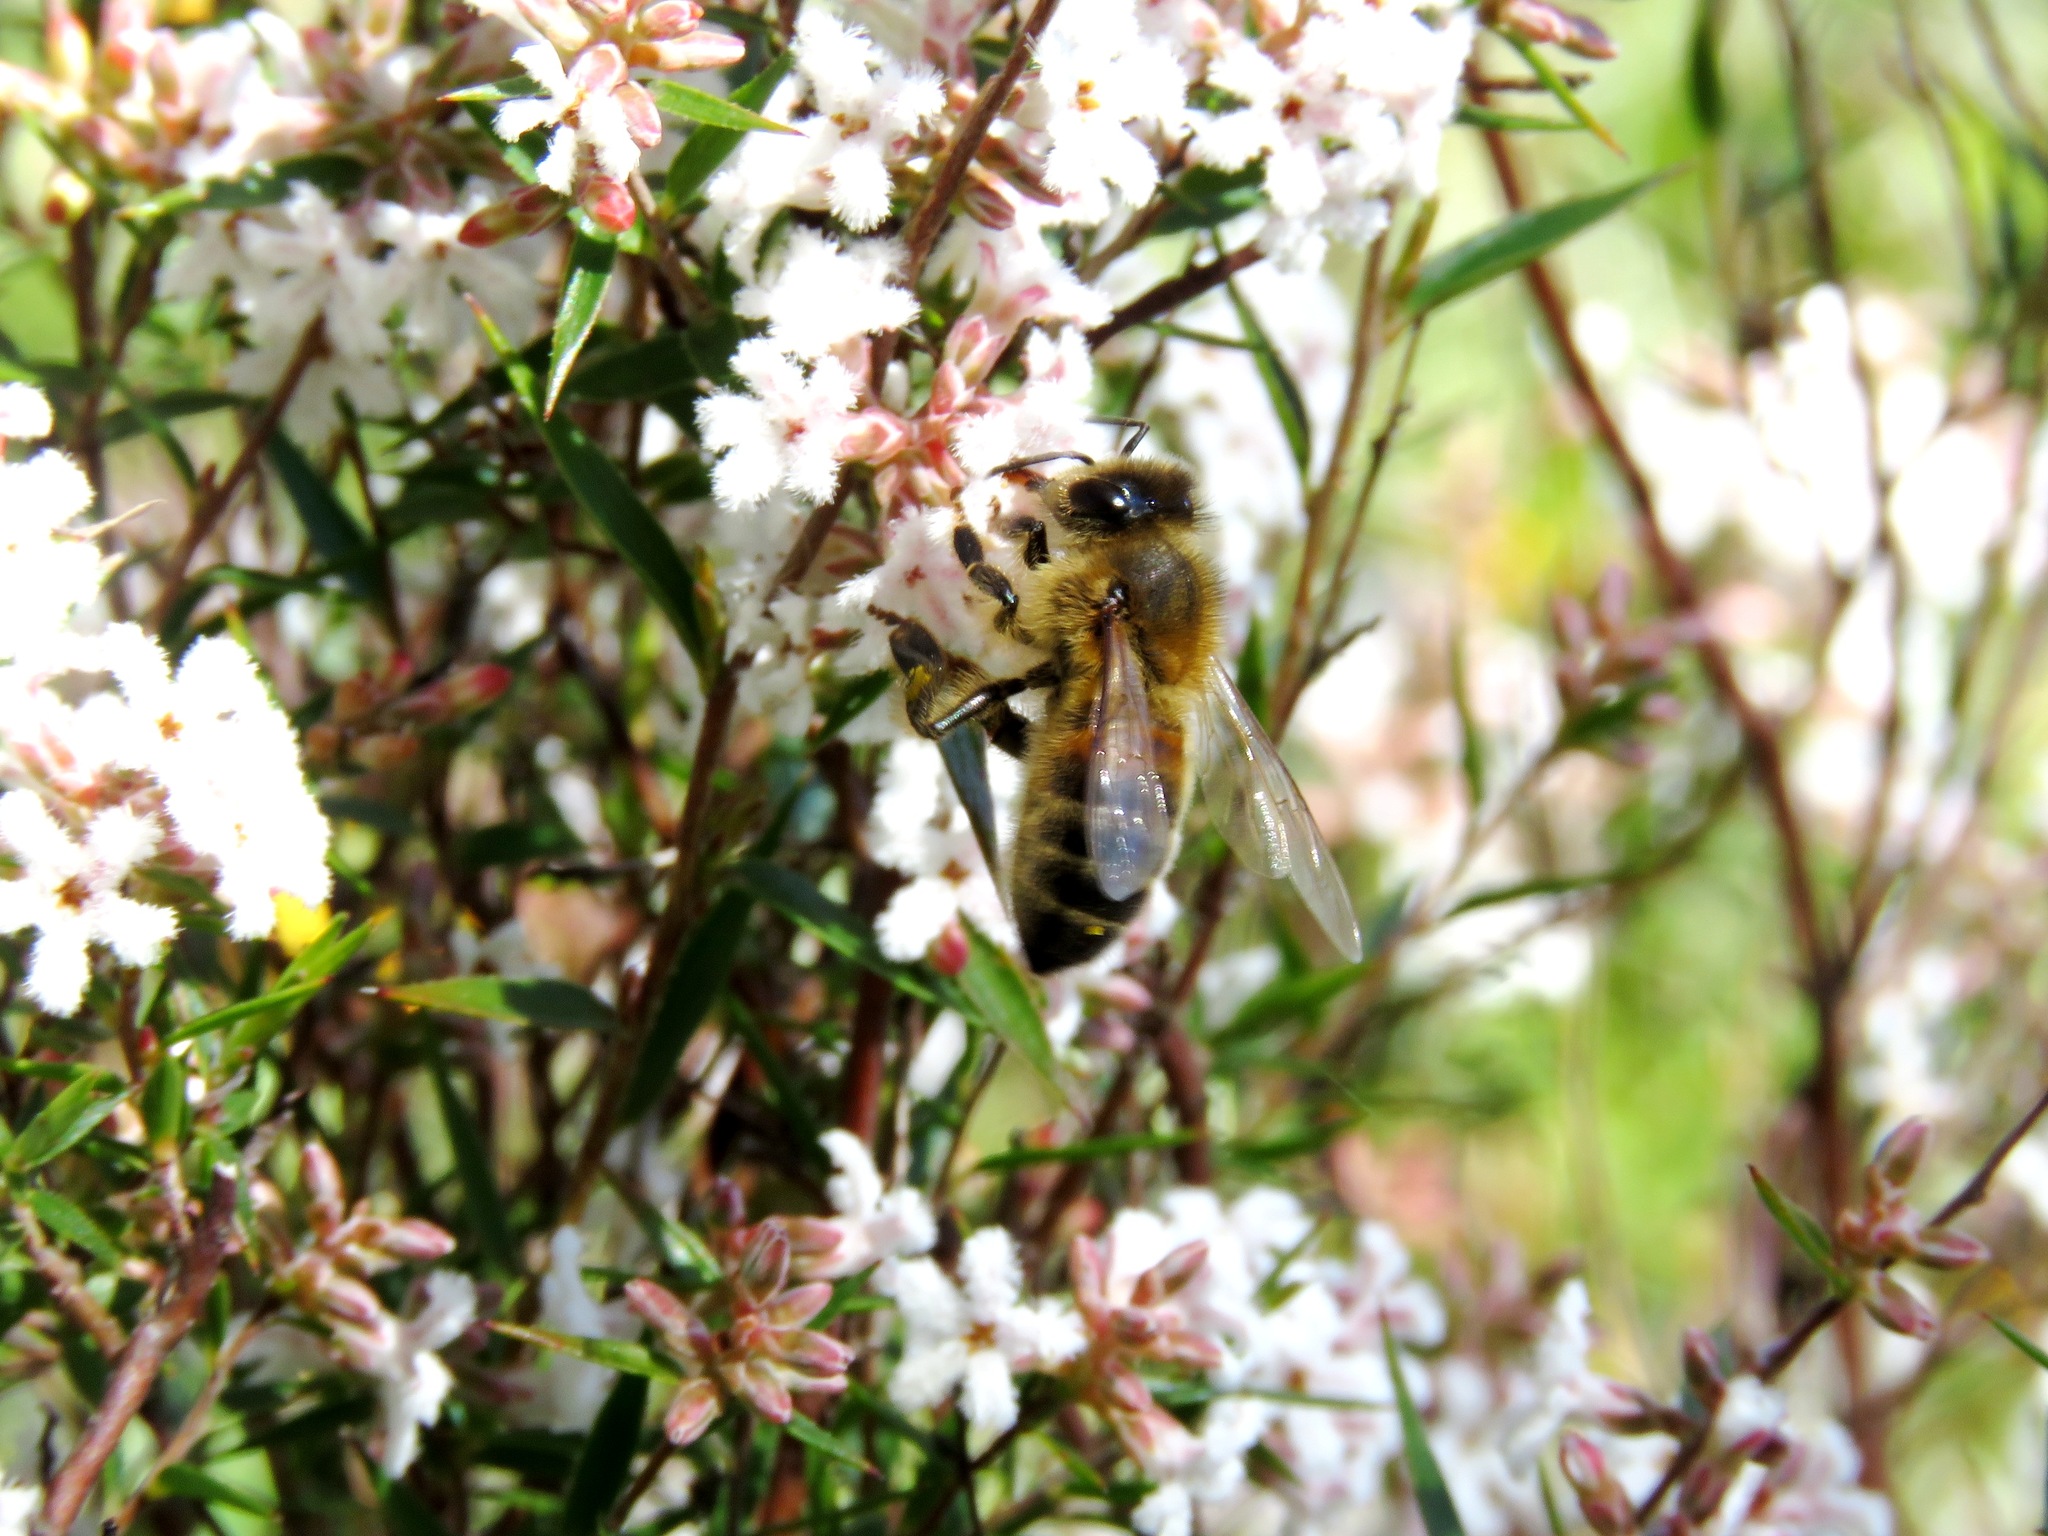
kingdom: Animalia
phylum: Arthropoda
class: Insecta
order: Hymenoptera
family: Apidae
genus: Apis
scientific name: Apis mellifera
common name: Honey bee
